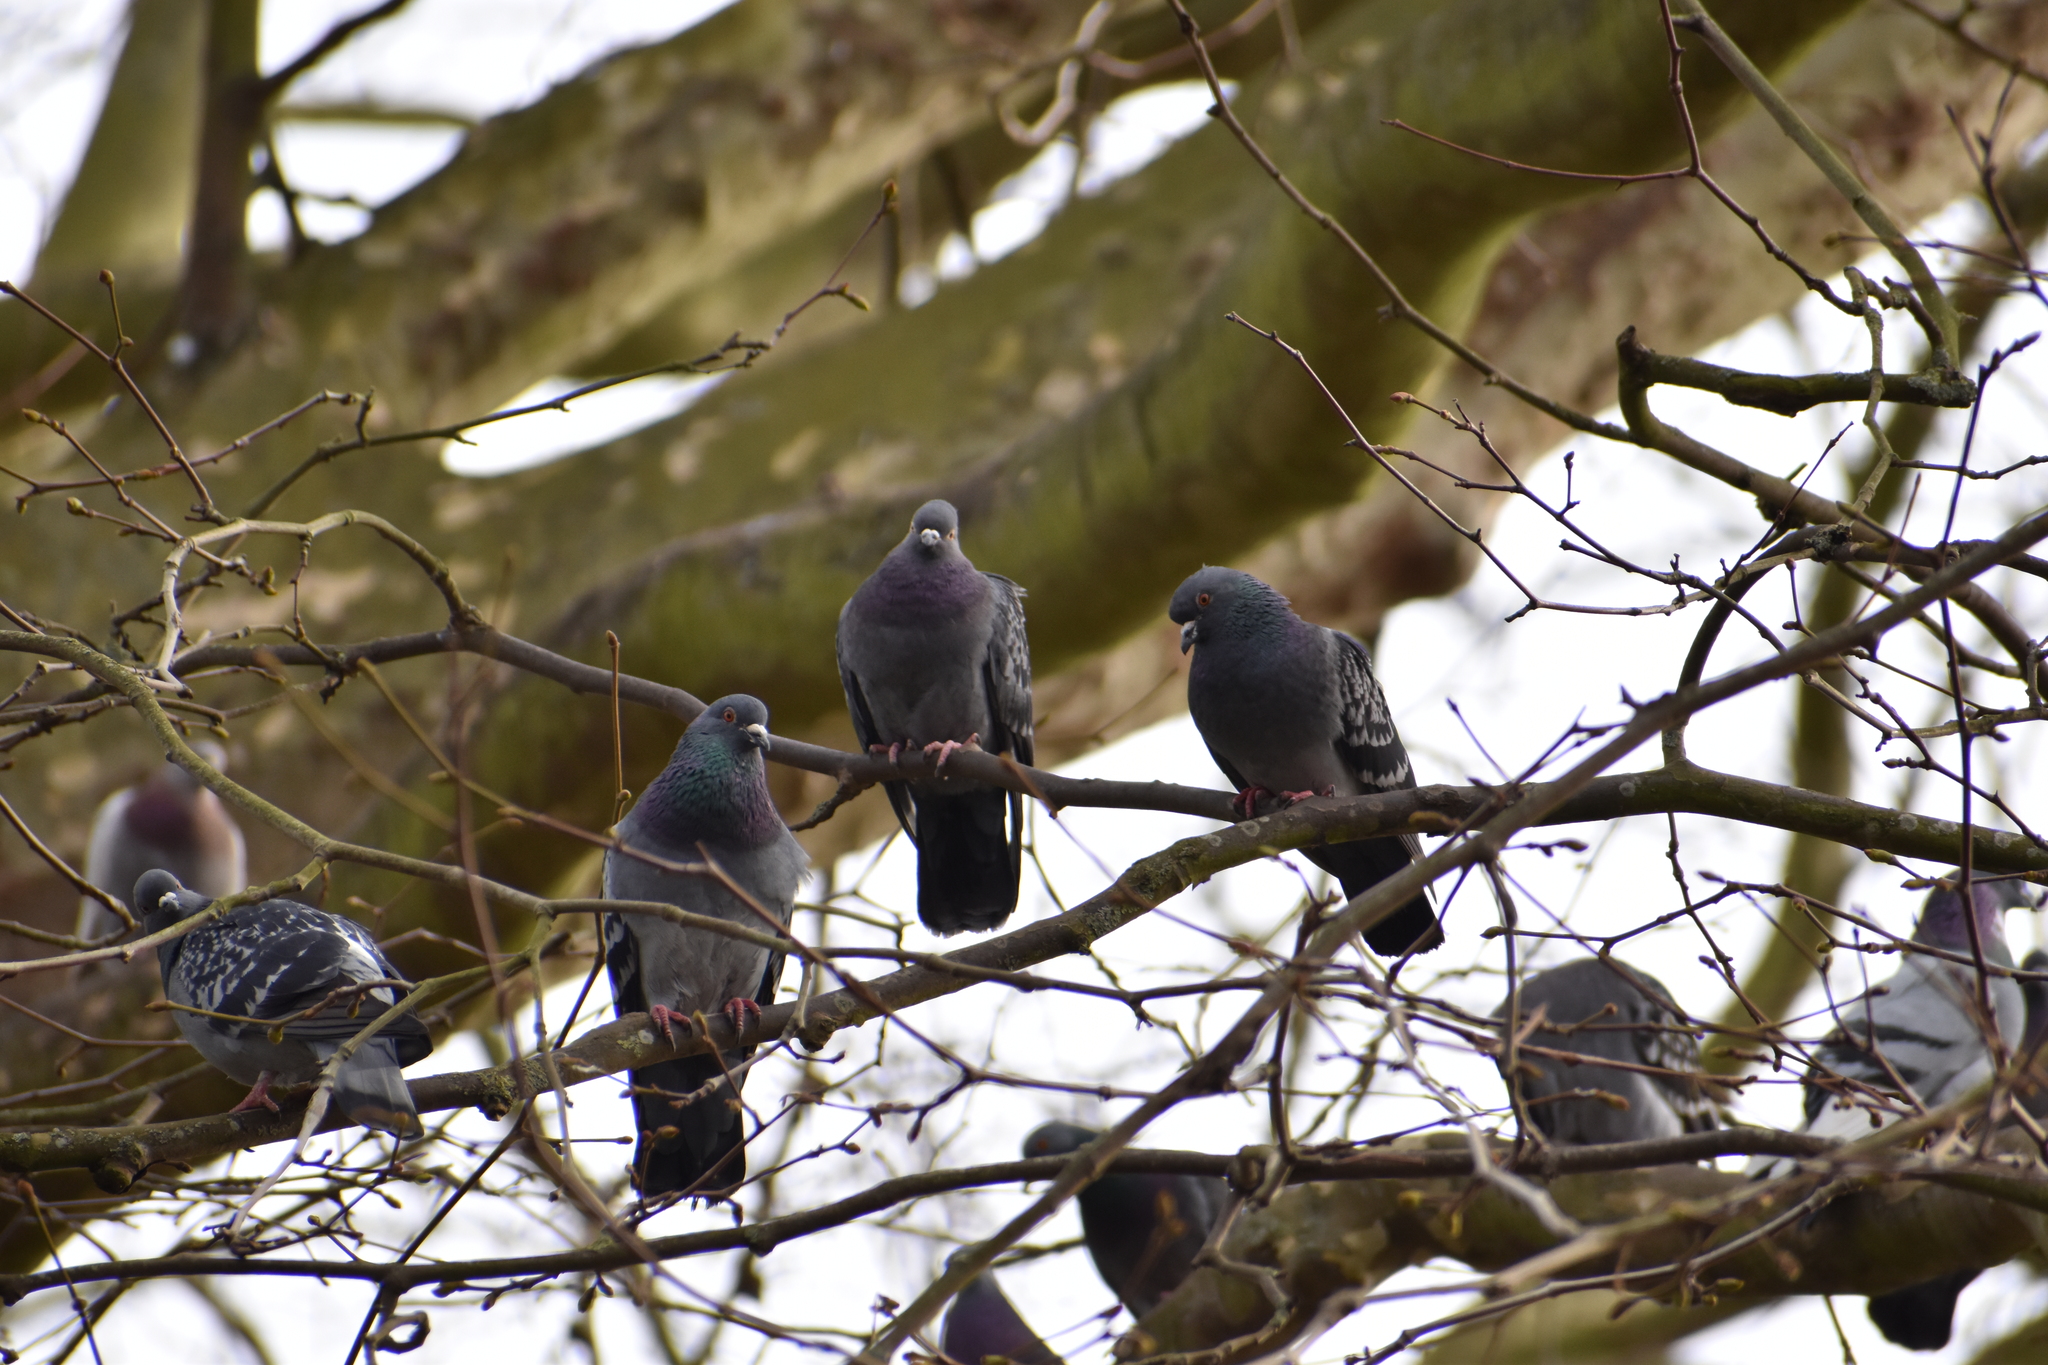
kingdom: Animalia
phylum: Chordata
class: Aves
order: Columbiformes
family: Columbidae
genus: Columba
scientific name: Columba livia
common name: Rock pigeon
